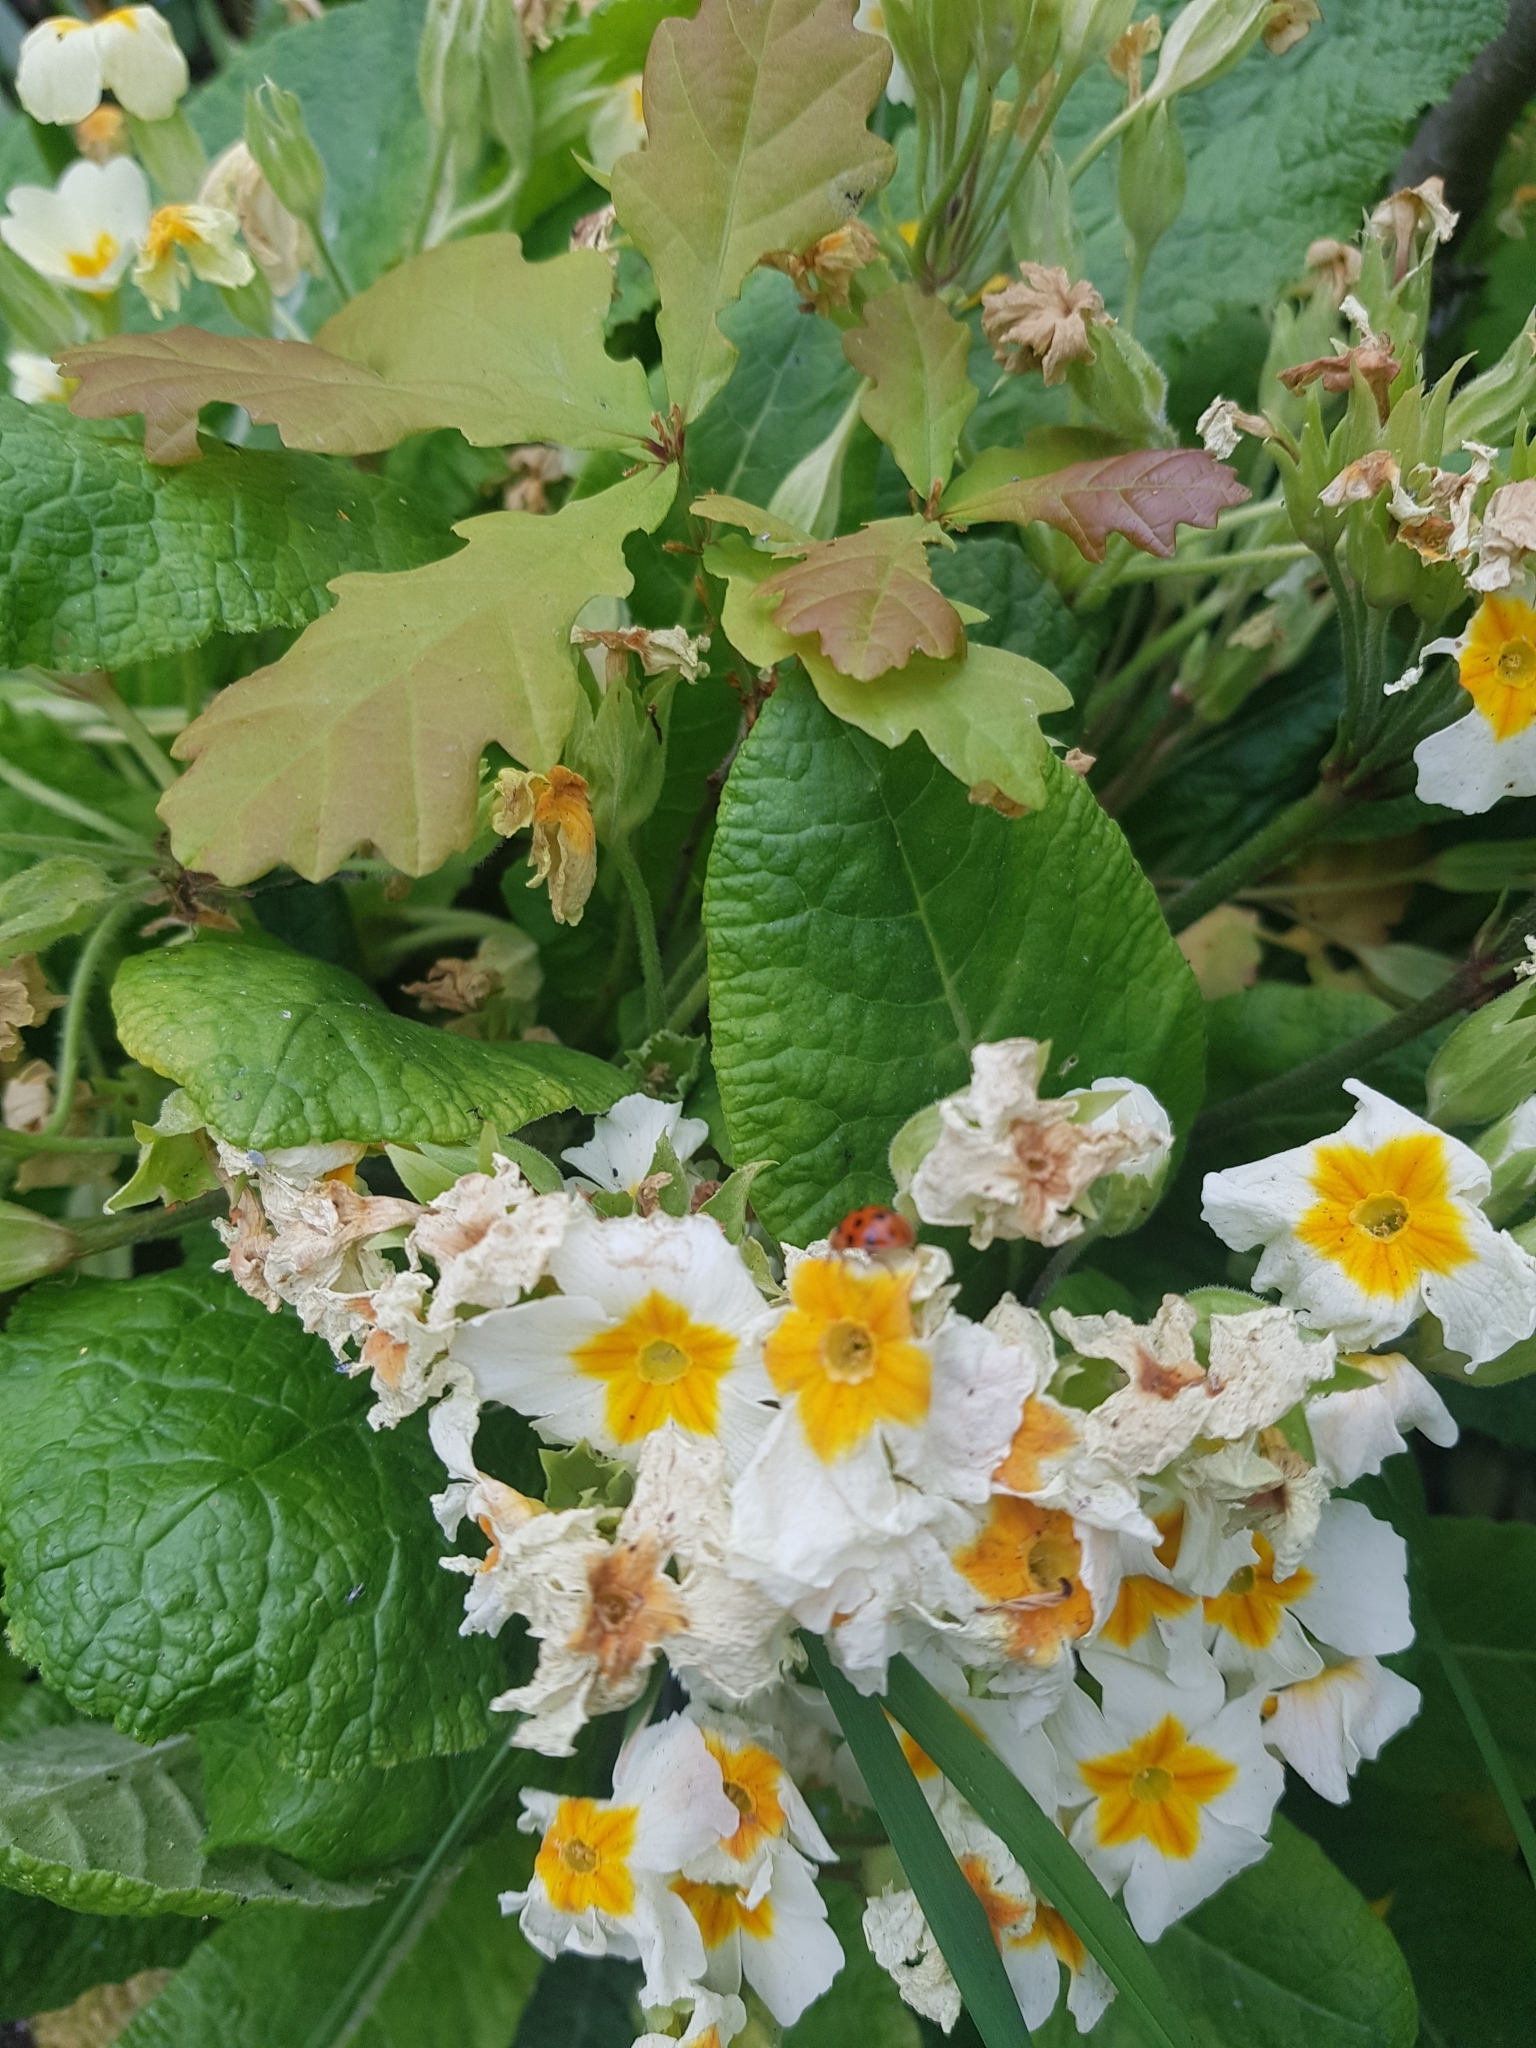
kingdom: Animalia
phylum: Arthropoda
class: Insecta
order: Coleoptera
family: Coccinellidae
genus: Harmonia
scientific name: Harmonia axyridis
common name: Harlequin ladybird
